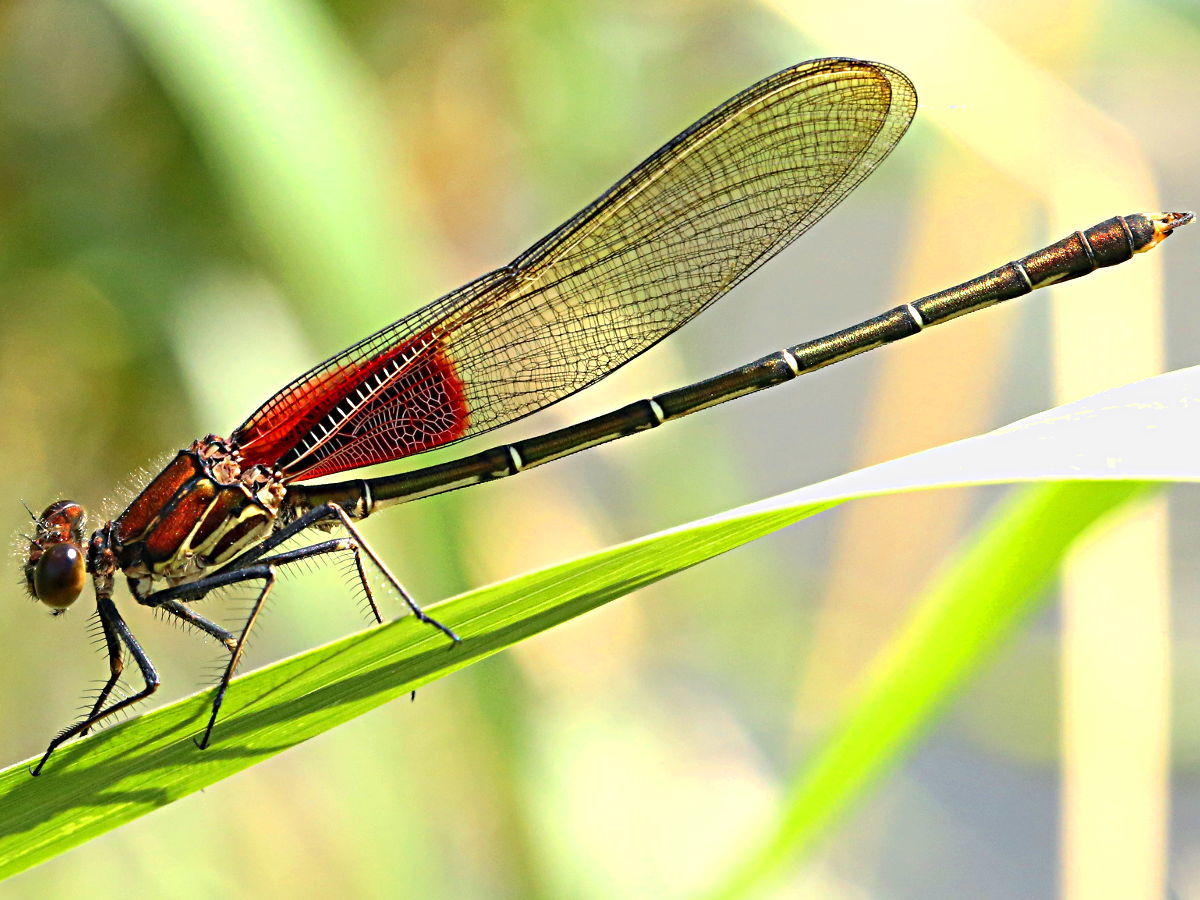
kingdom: Animalia
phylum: Arthropoda
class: Insecta
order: Odonata
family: Calopterygidae
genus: Hetaerina
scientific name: Hetaerina americana
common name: American rubyspot
